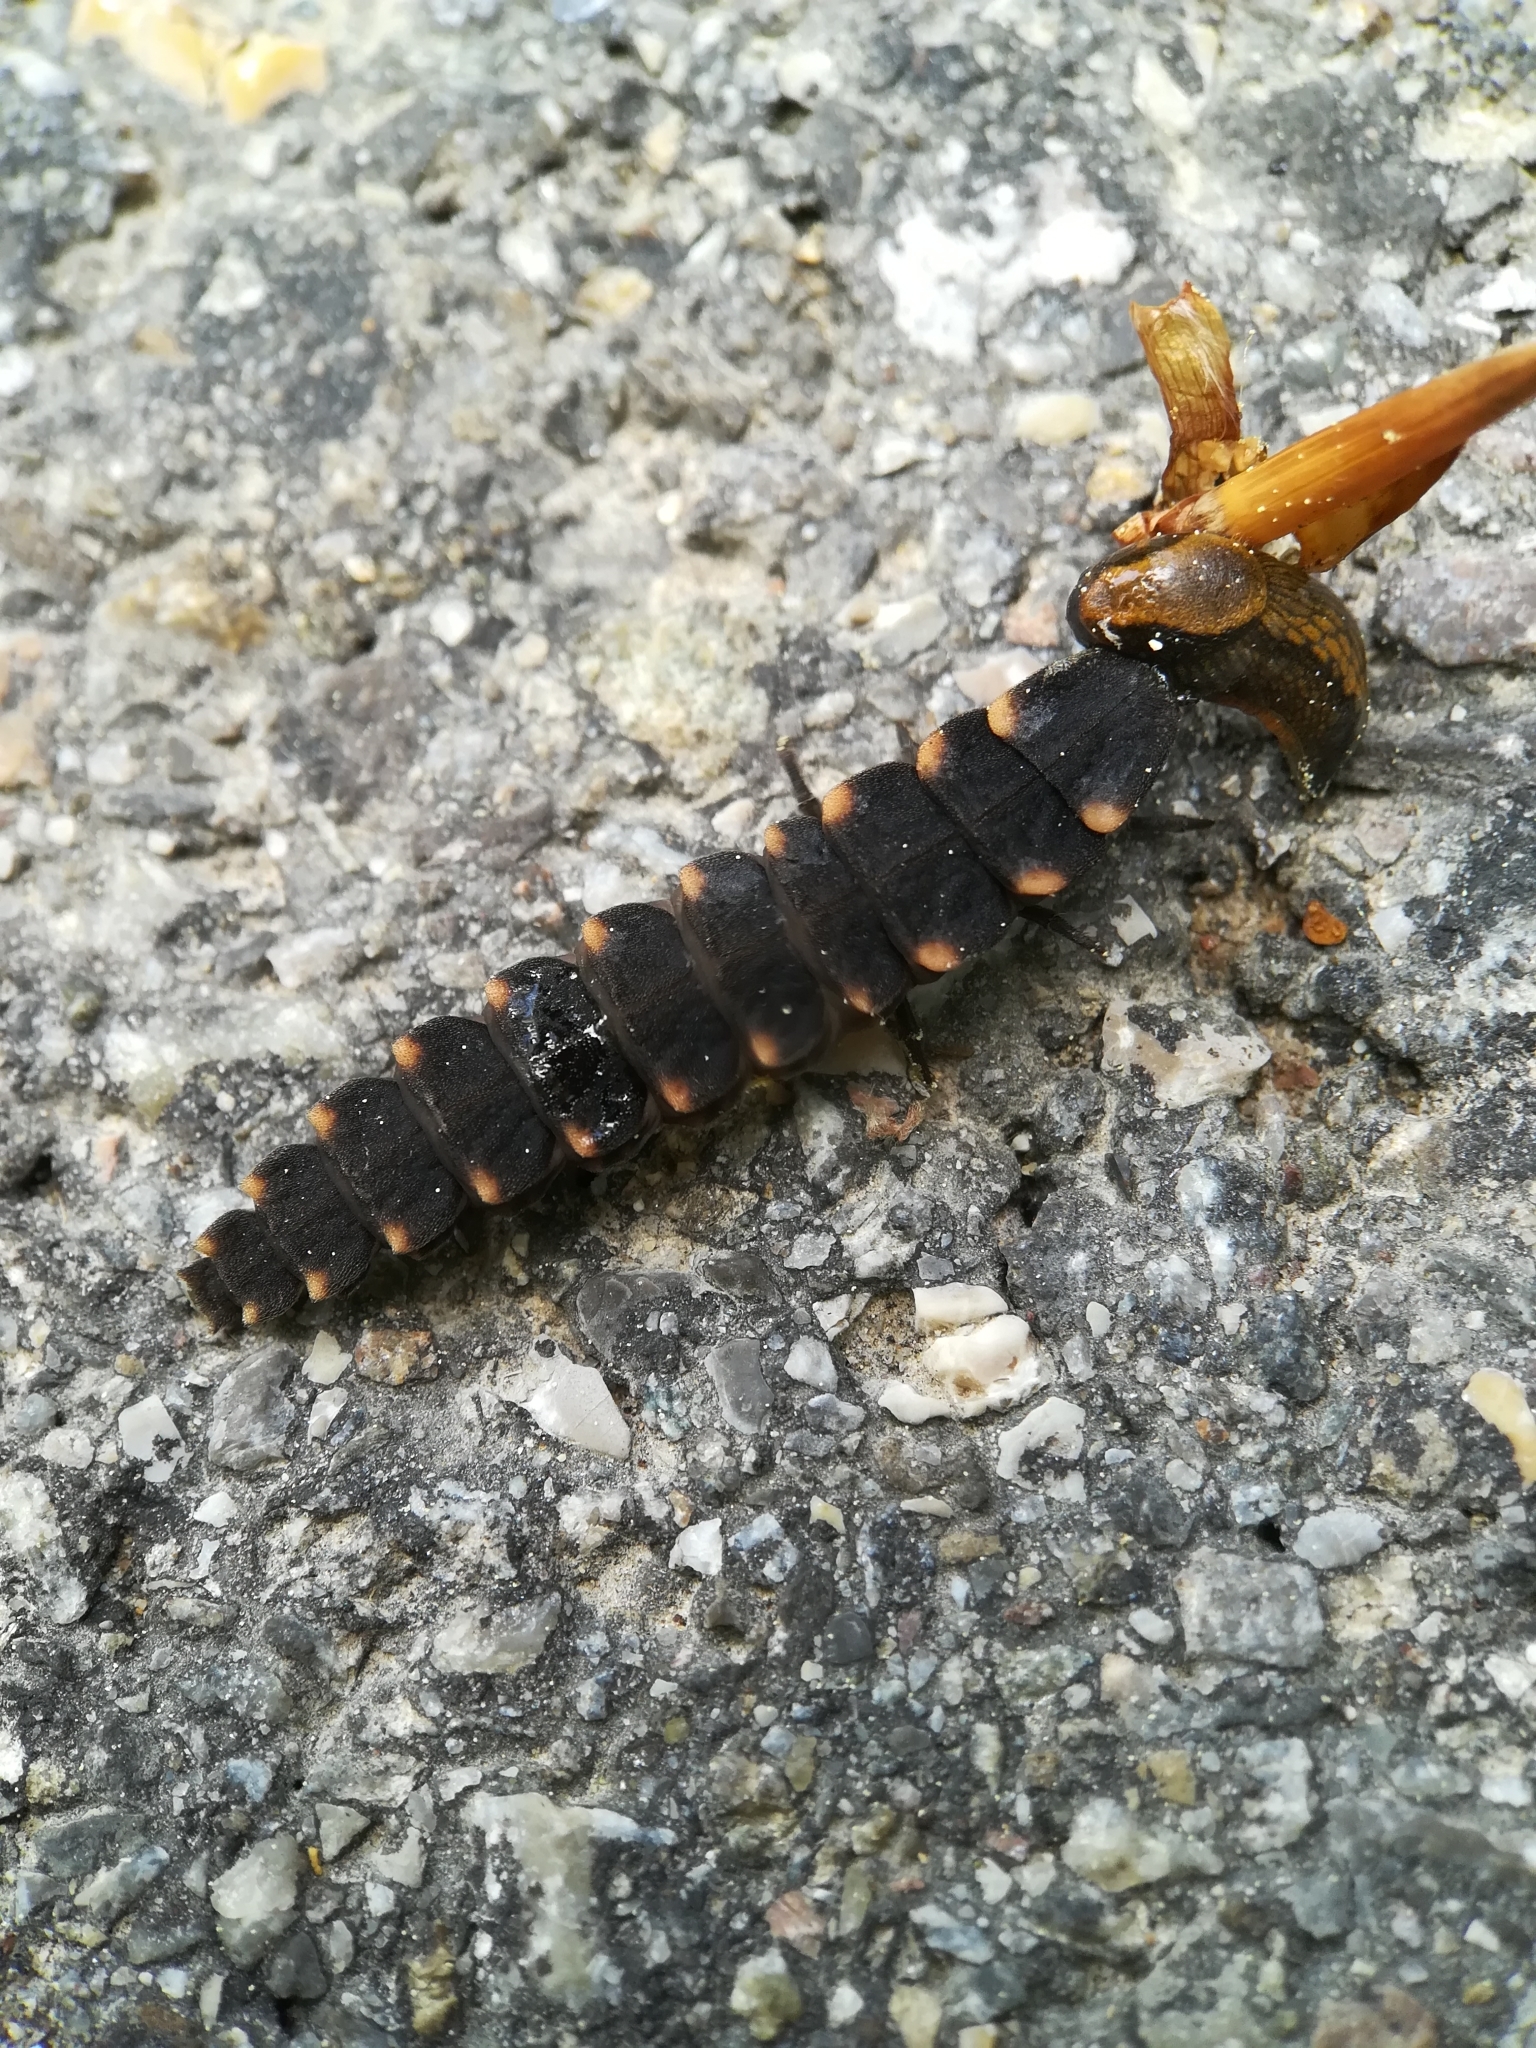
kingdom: Animalia
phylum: Arthropoda
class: Insecta
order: Coleoptera
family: Lampyridae
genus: Lampyris
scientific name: Lampyris noctiluca
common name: Glow-worm
